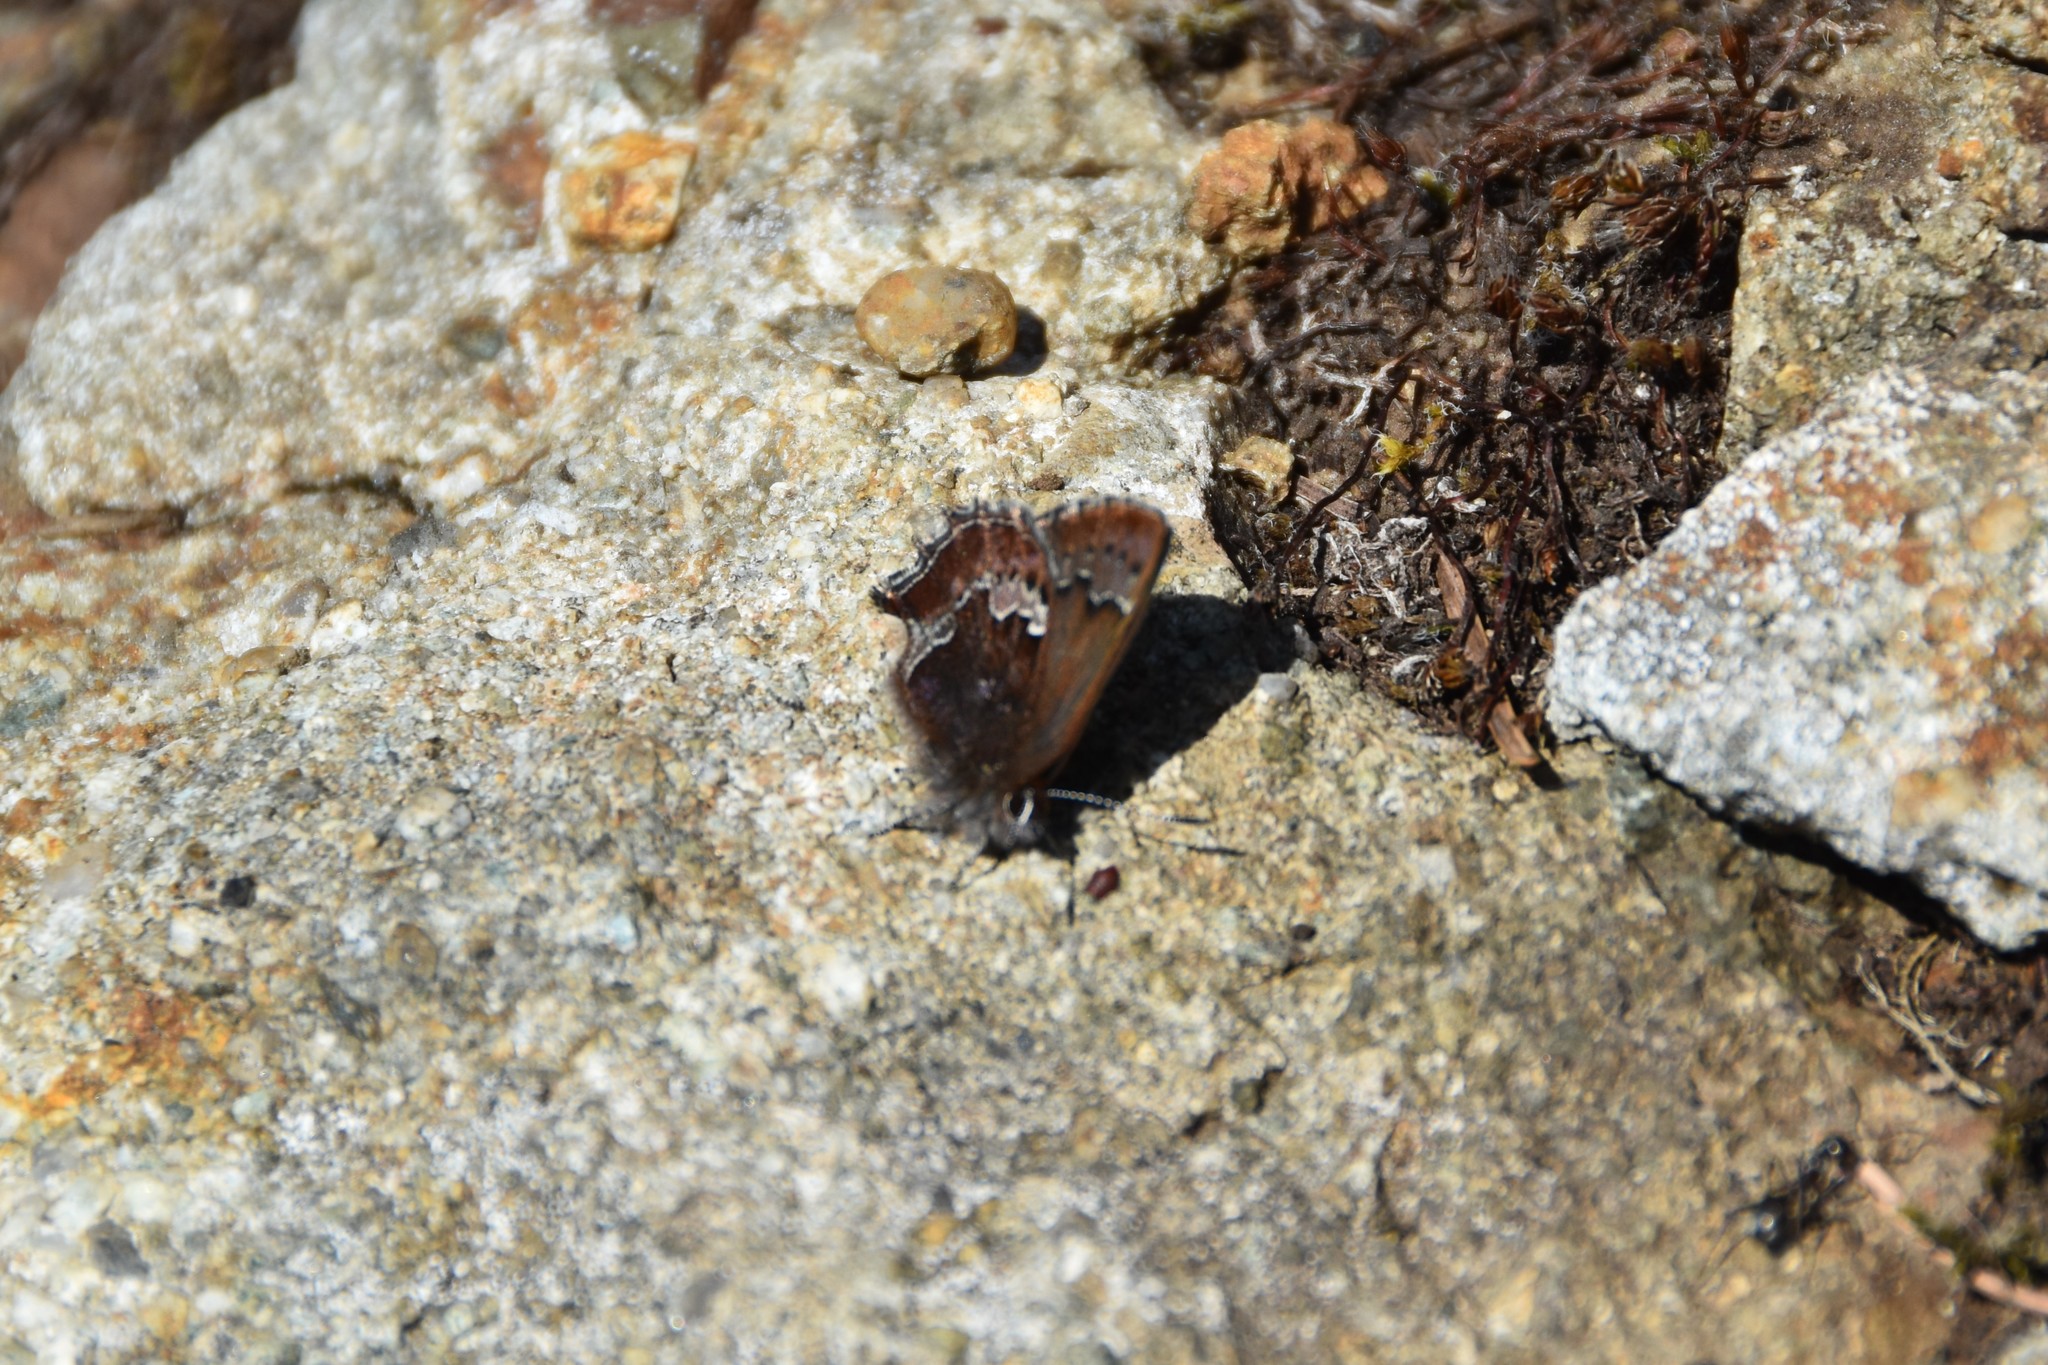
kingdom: Animalia
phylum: Arthropoda
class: Insecta
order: Lepidoptera
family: Lycaenidae
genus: Callophrys
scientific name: Callophrys mossii
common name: Moss' elfin
